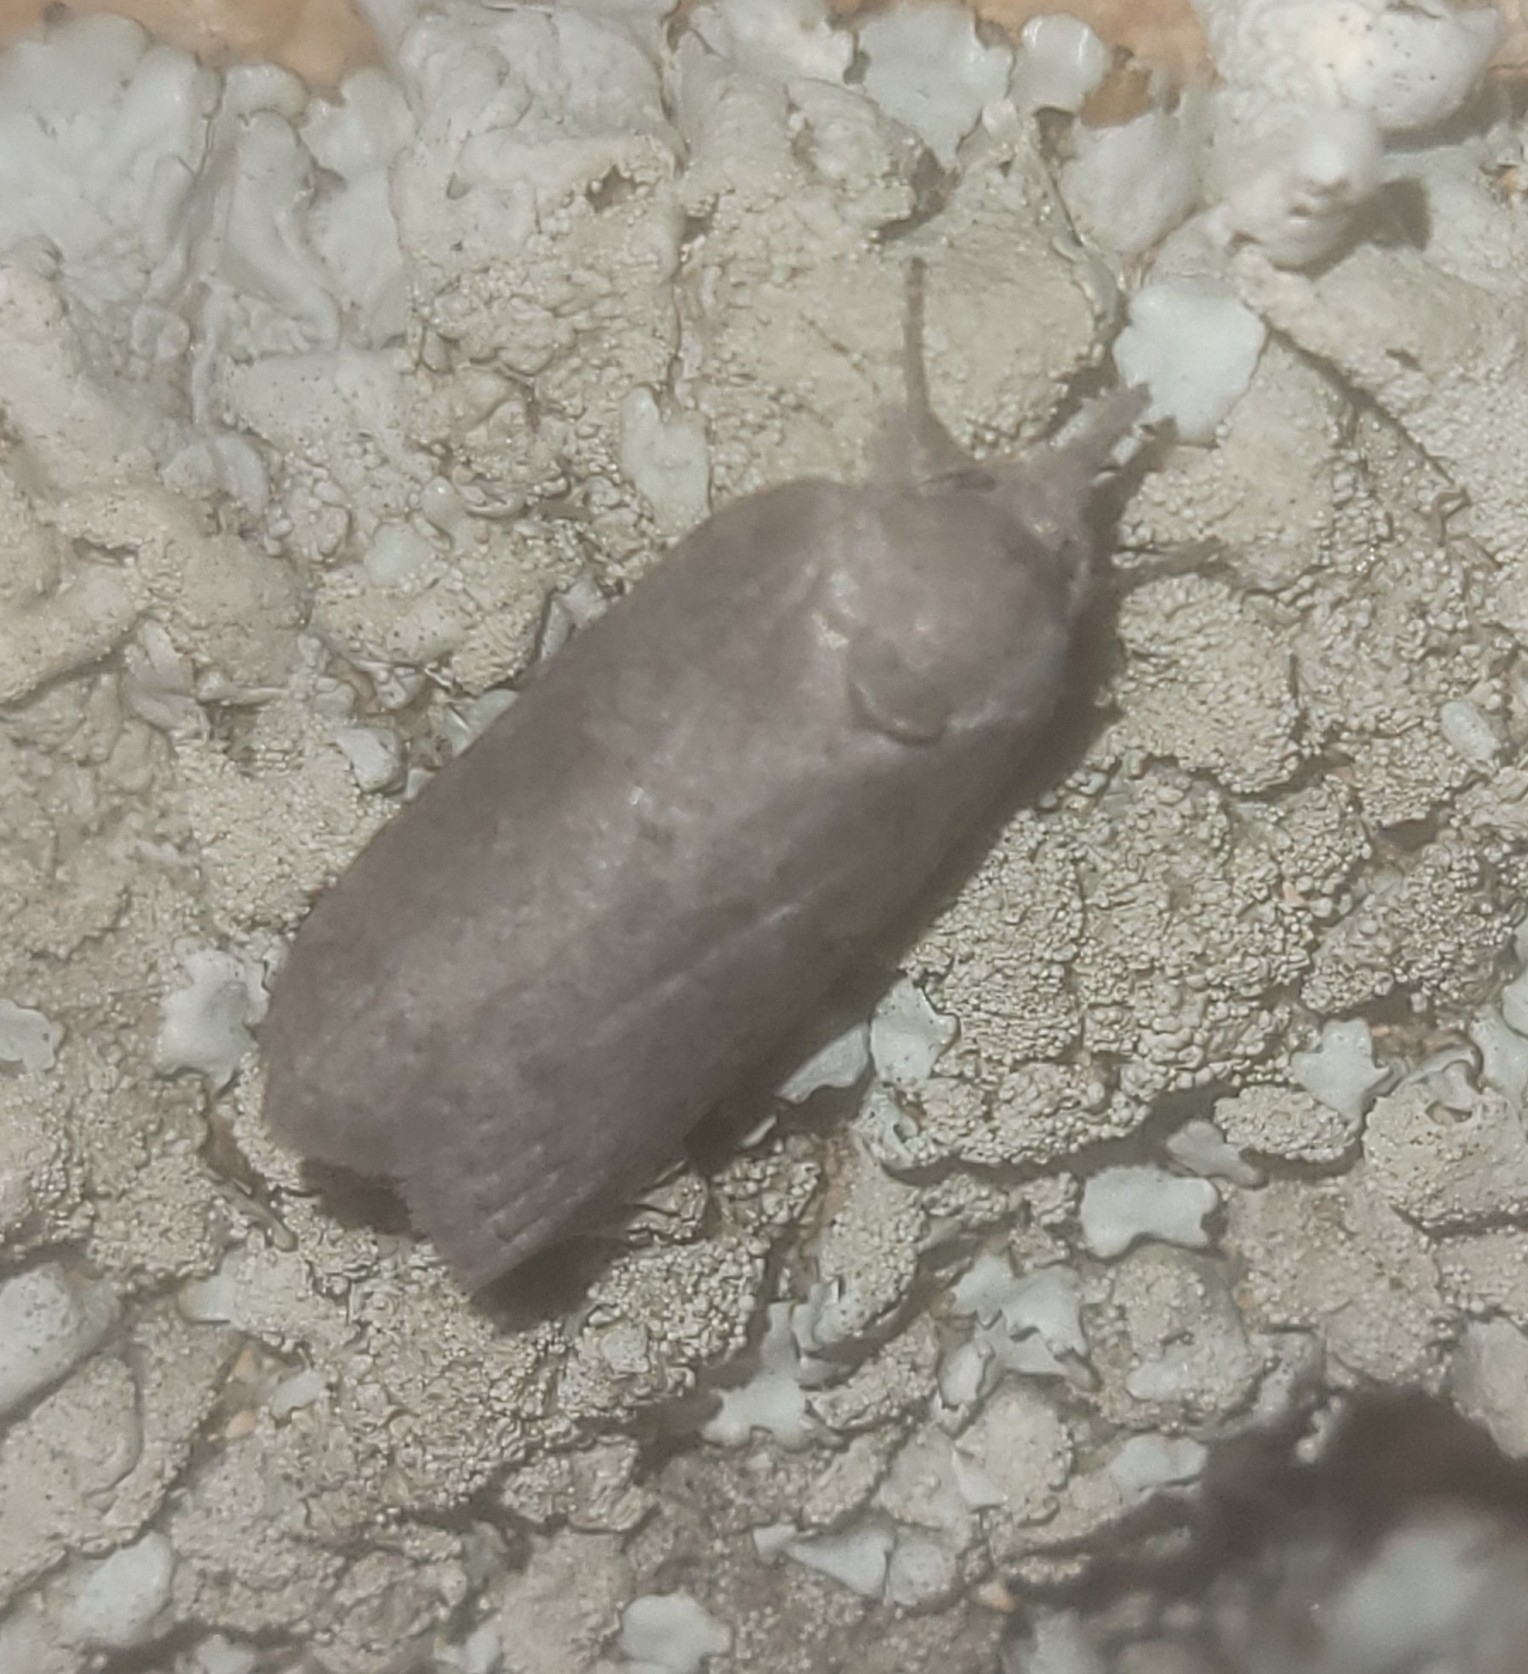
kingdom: Animalia
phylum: Arthropoda
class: Insecta
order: Lepidoptera
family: Nolidae
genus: Nycteola
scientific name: Nycteola revayana
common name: Oak nycteoline
